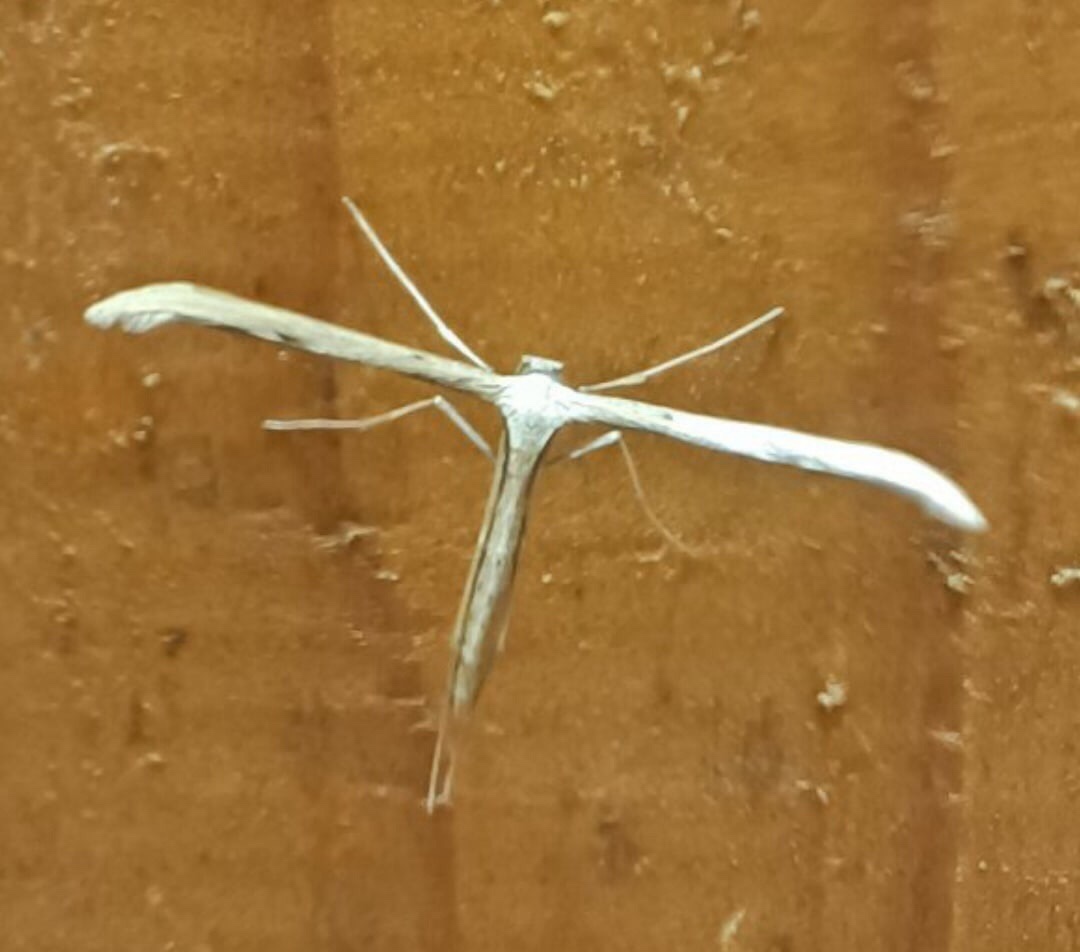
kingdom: Animalia
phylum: Arthropoda
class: Insecta
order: Lepidoptera
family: Pterophoridae
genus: Emmelina
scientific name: Emmelina monodactyla
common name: Common plume
